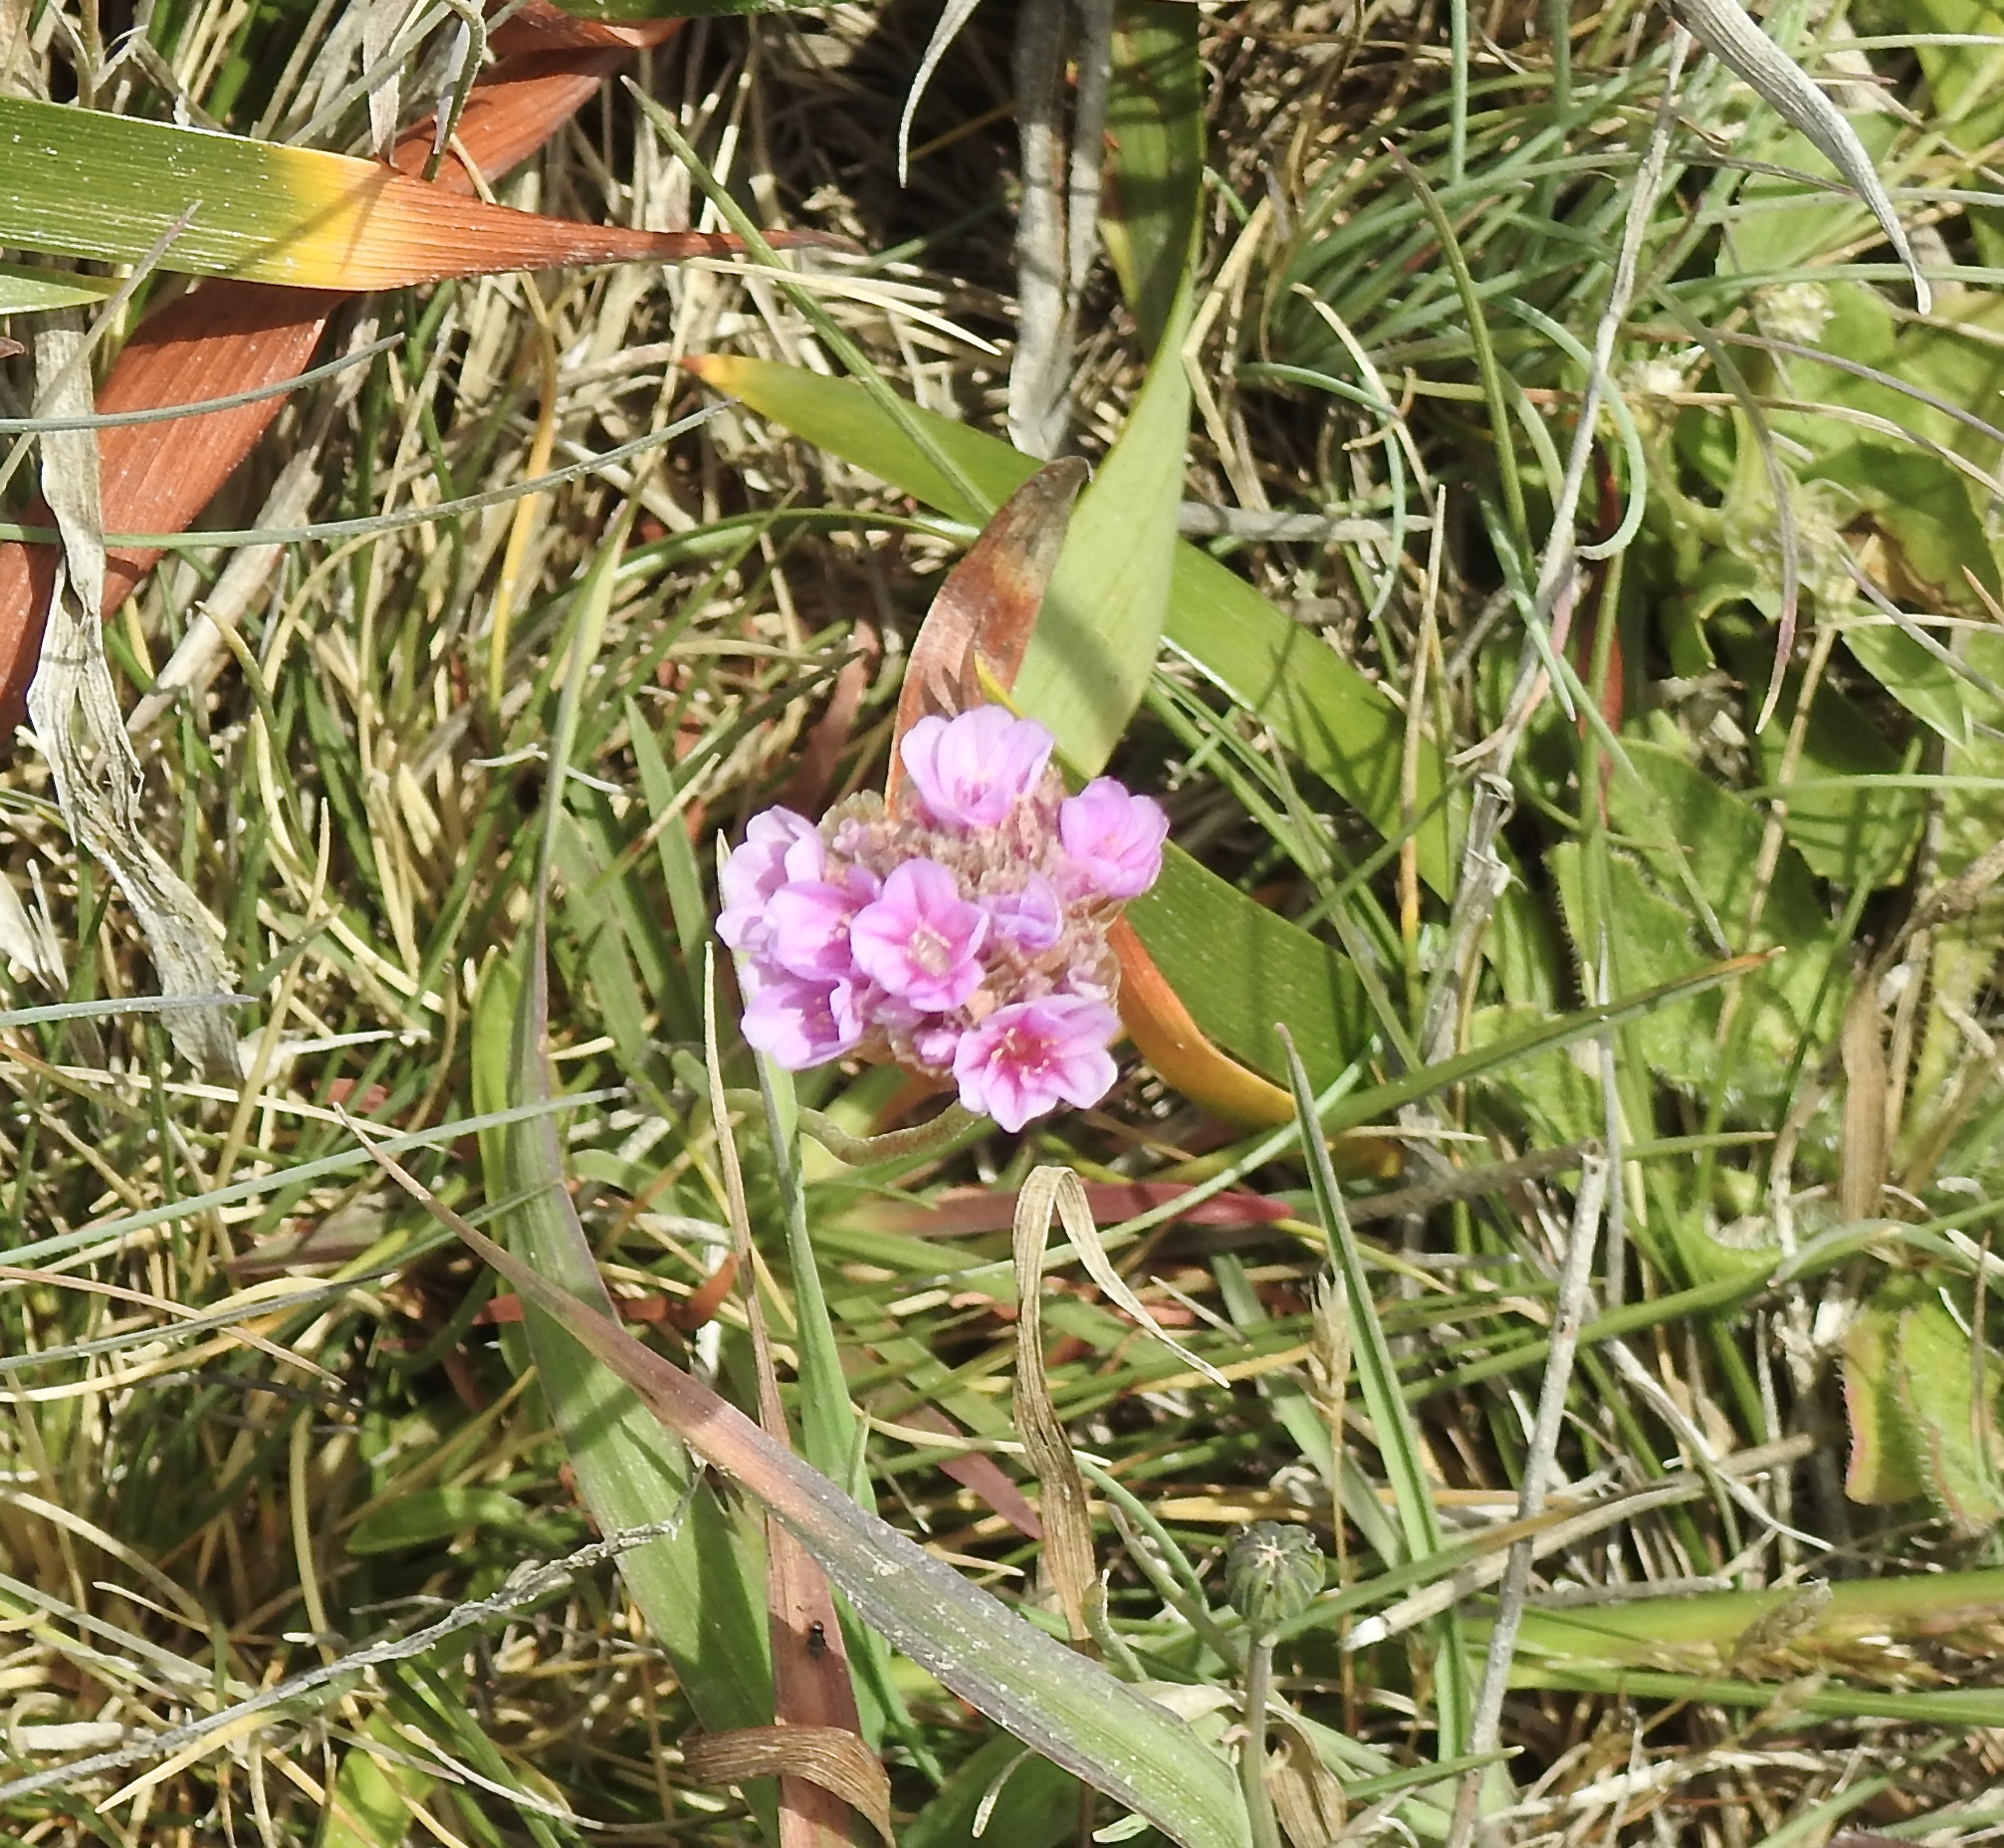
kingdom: Plantae
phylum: Tracheophyta
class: Magnoliopsida
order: Caryophyllales
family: Plumbaginaceae
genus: Armeria
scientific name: Armeria maritima
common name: Thrift
